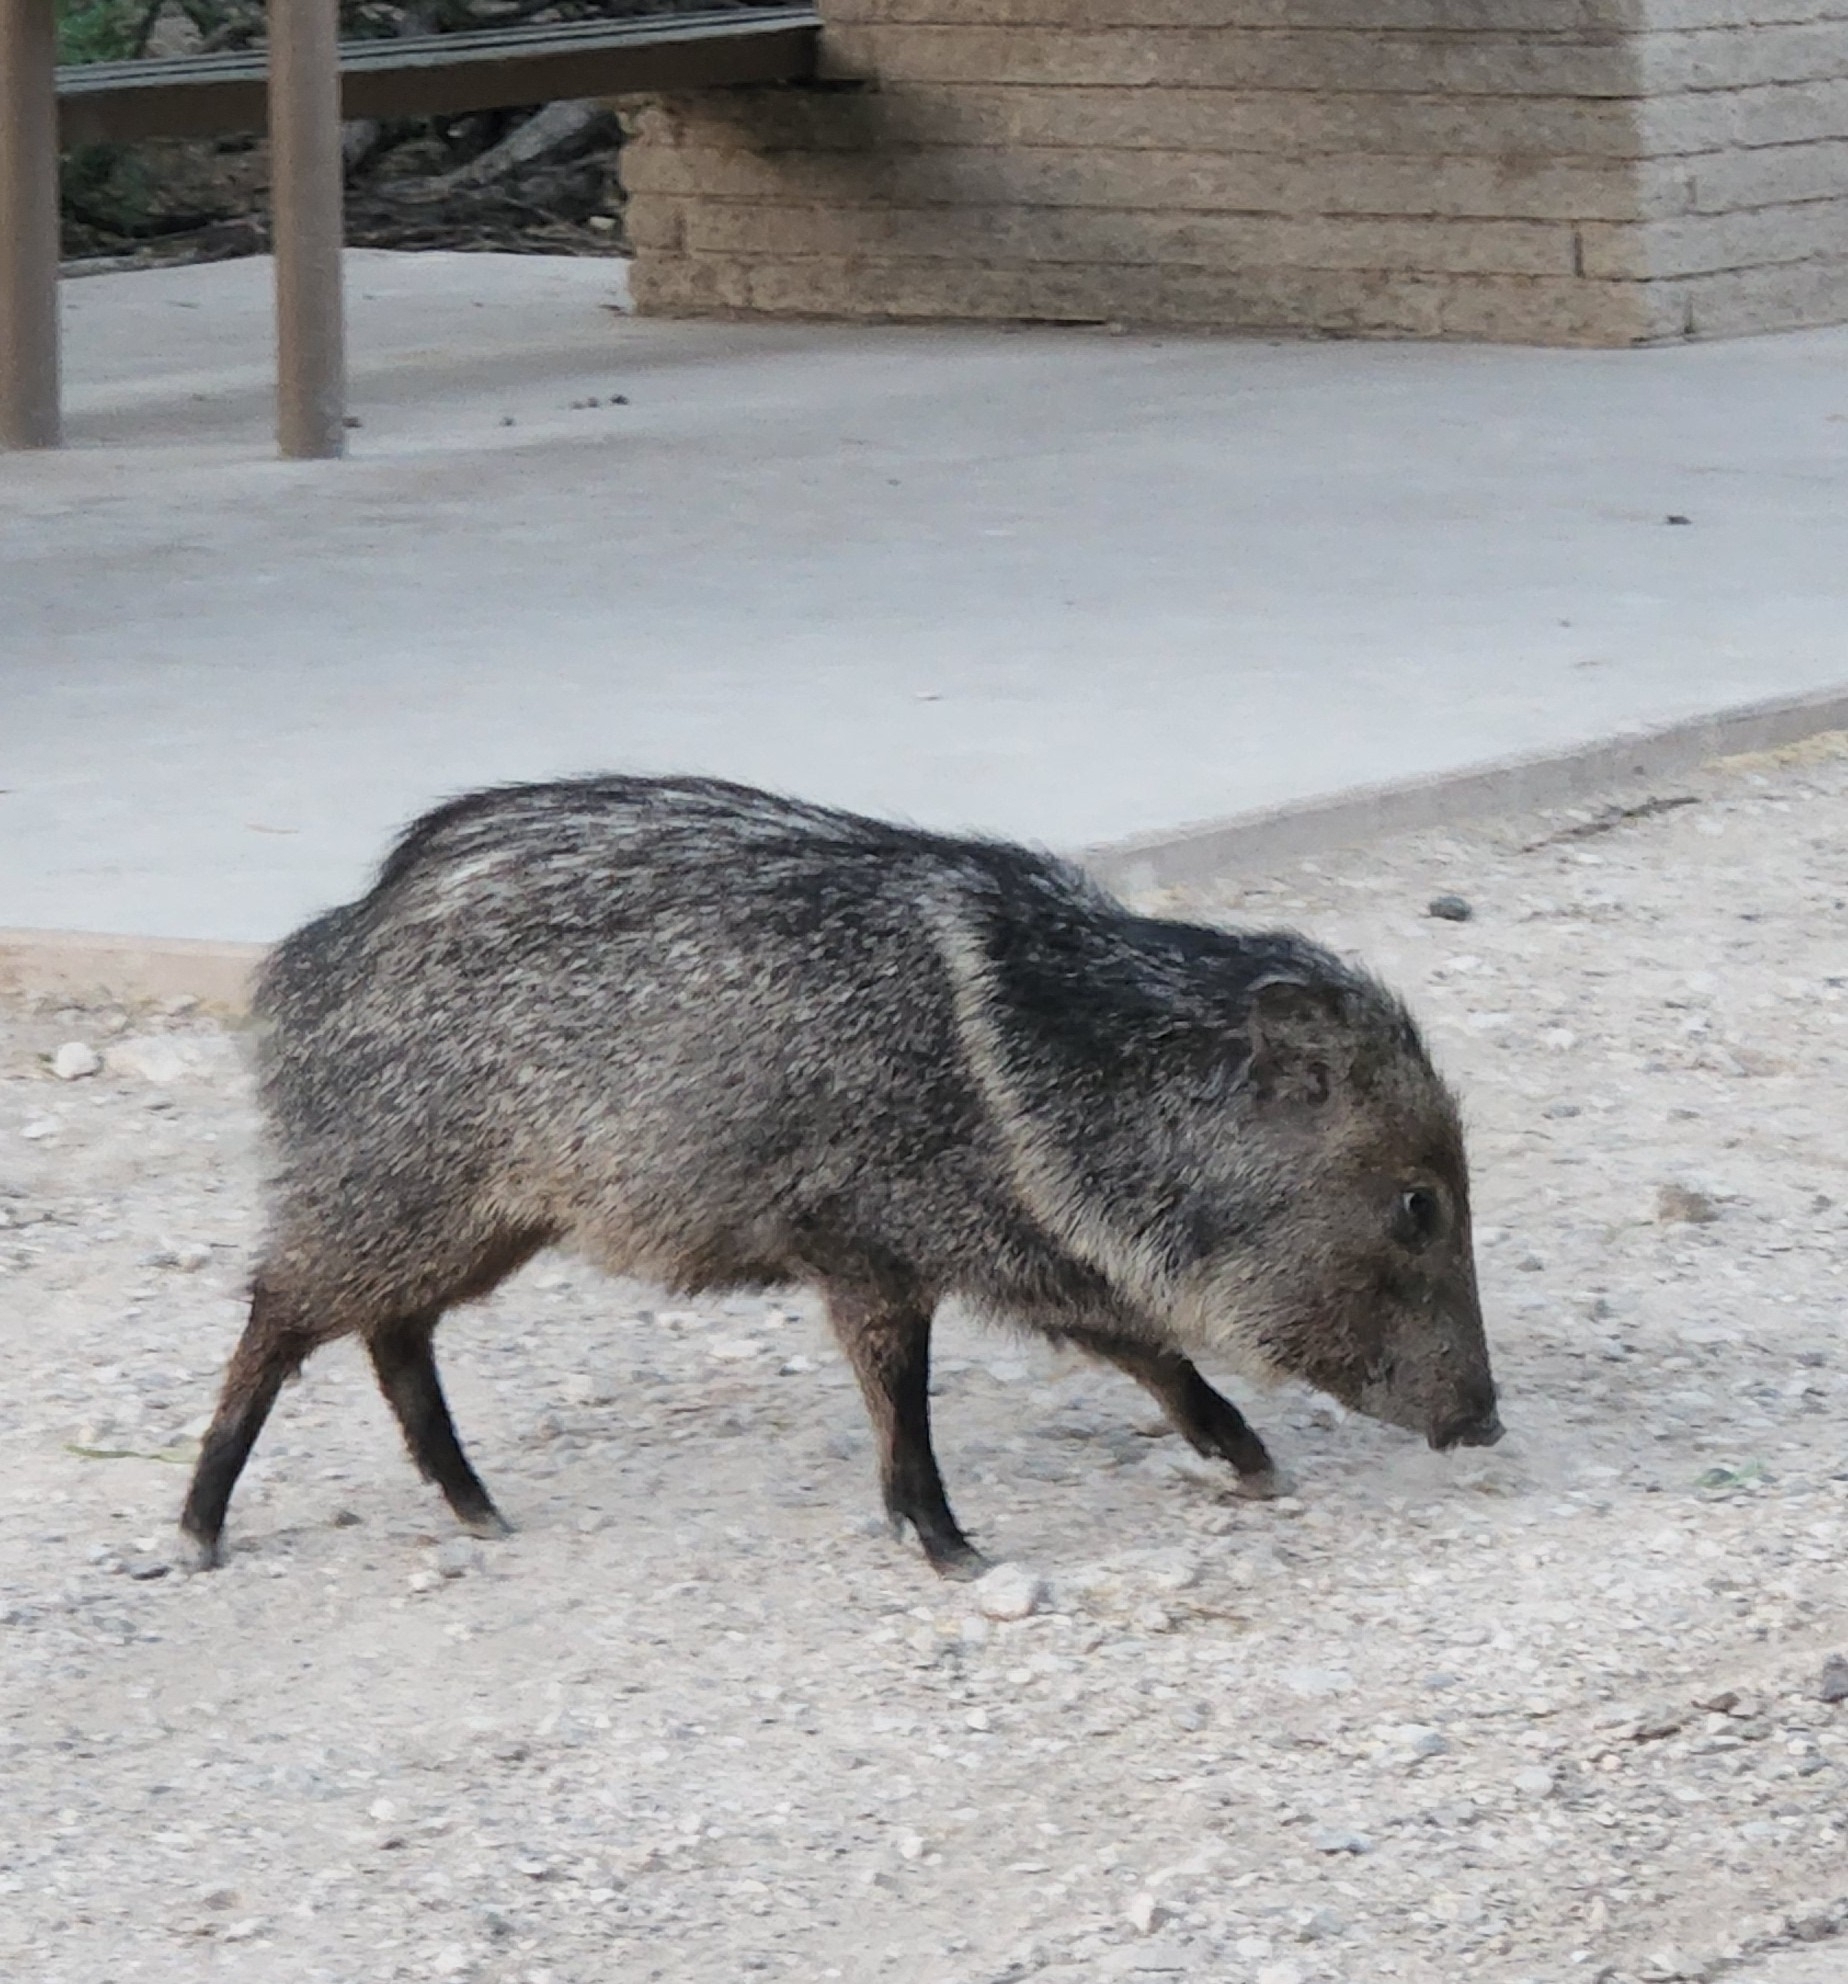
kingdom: Animalia
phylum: Chordata
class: Mammalia
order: Artiodactyla
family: Tayassuidae
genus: Pecari
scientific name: Pecari tajacu
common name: Collared peccary
